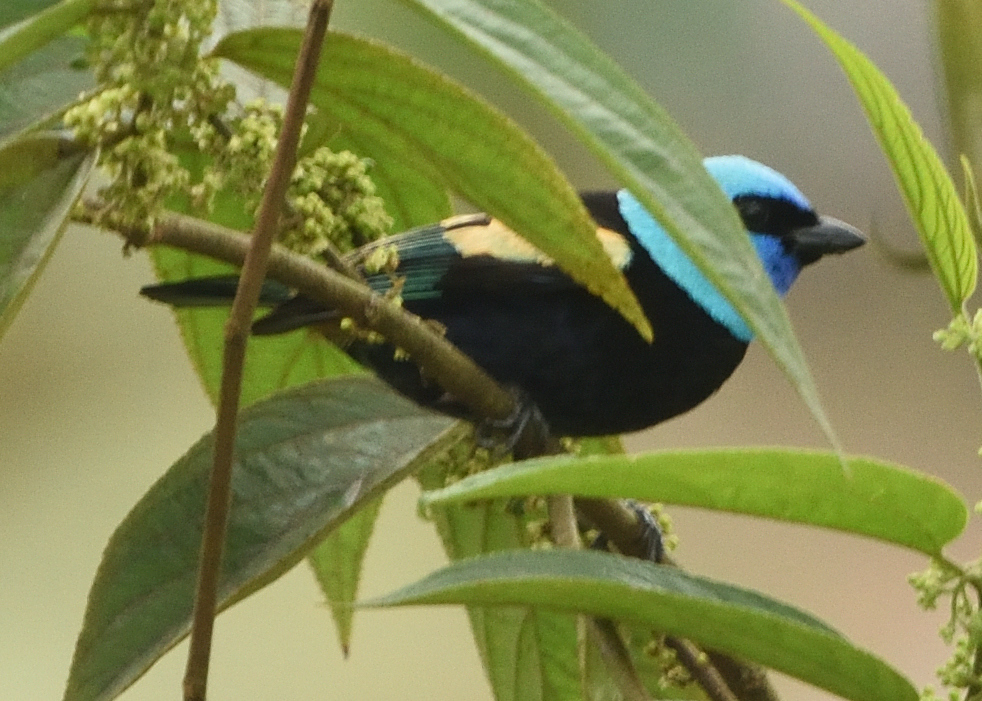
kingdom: Animalia
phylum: Chordata
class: Aves
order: Passeriformes
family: Thraupidae
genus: Stilpnia
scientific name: Stilpnia cyanicollis
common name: Blue-necked tanager
